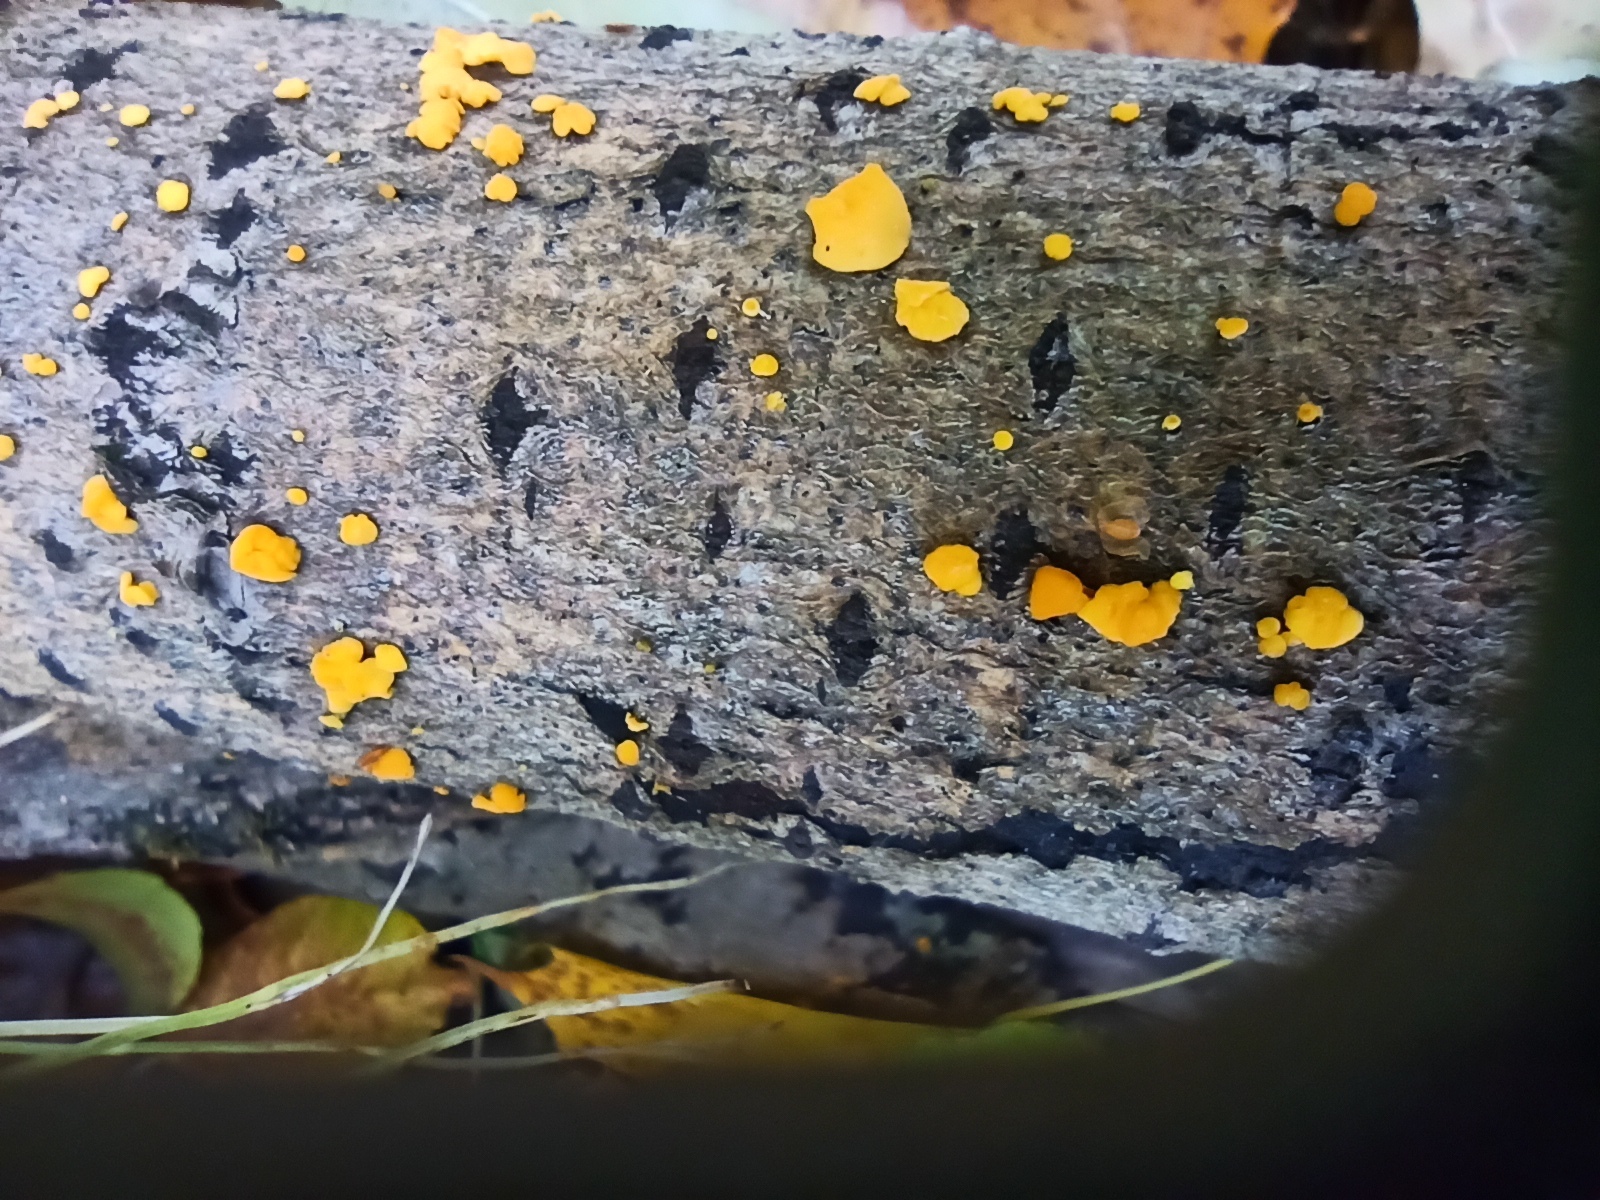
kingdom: Fungi
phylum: Ascomycota
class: Leotiomycetes
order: Helotiales
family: Pezizellaceae
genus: Calycina
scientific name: Calycina citrina
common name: Yellow fairy cups
